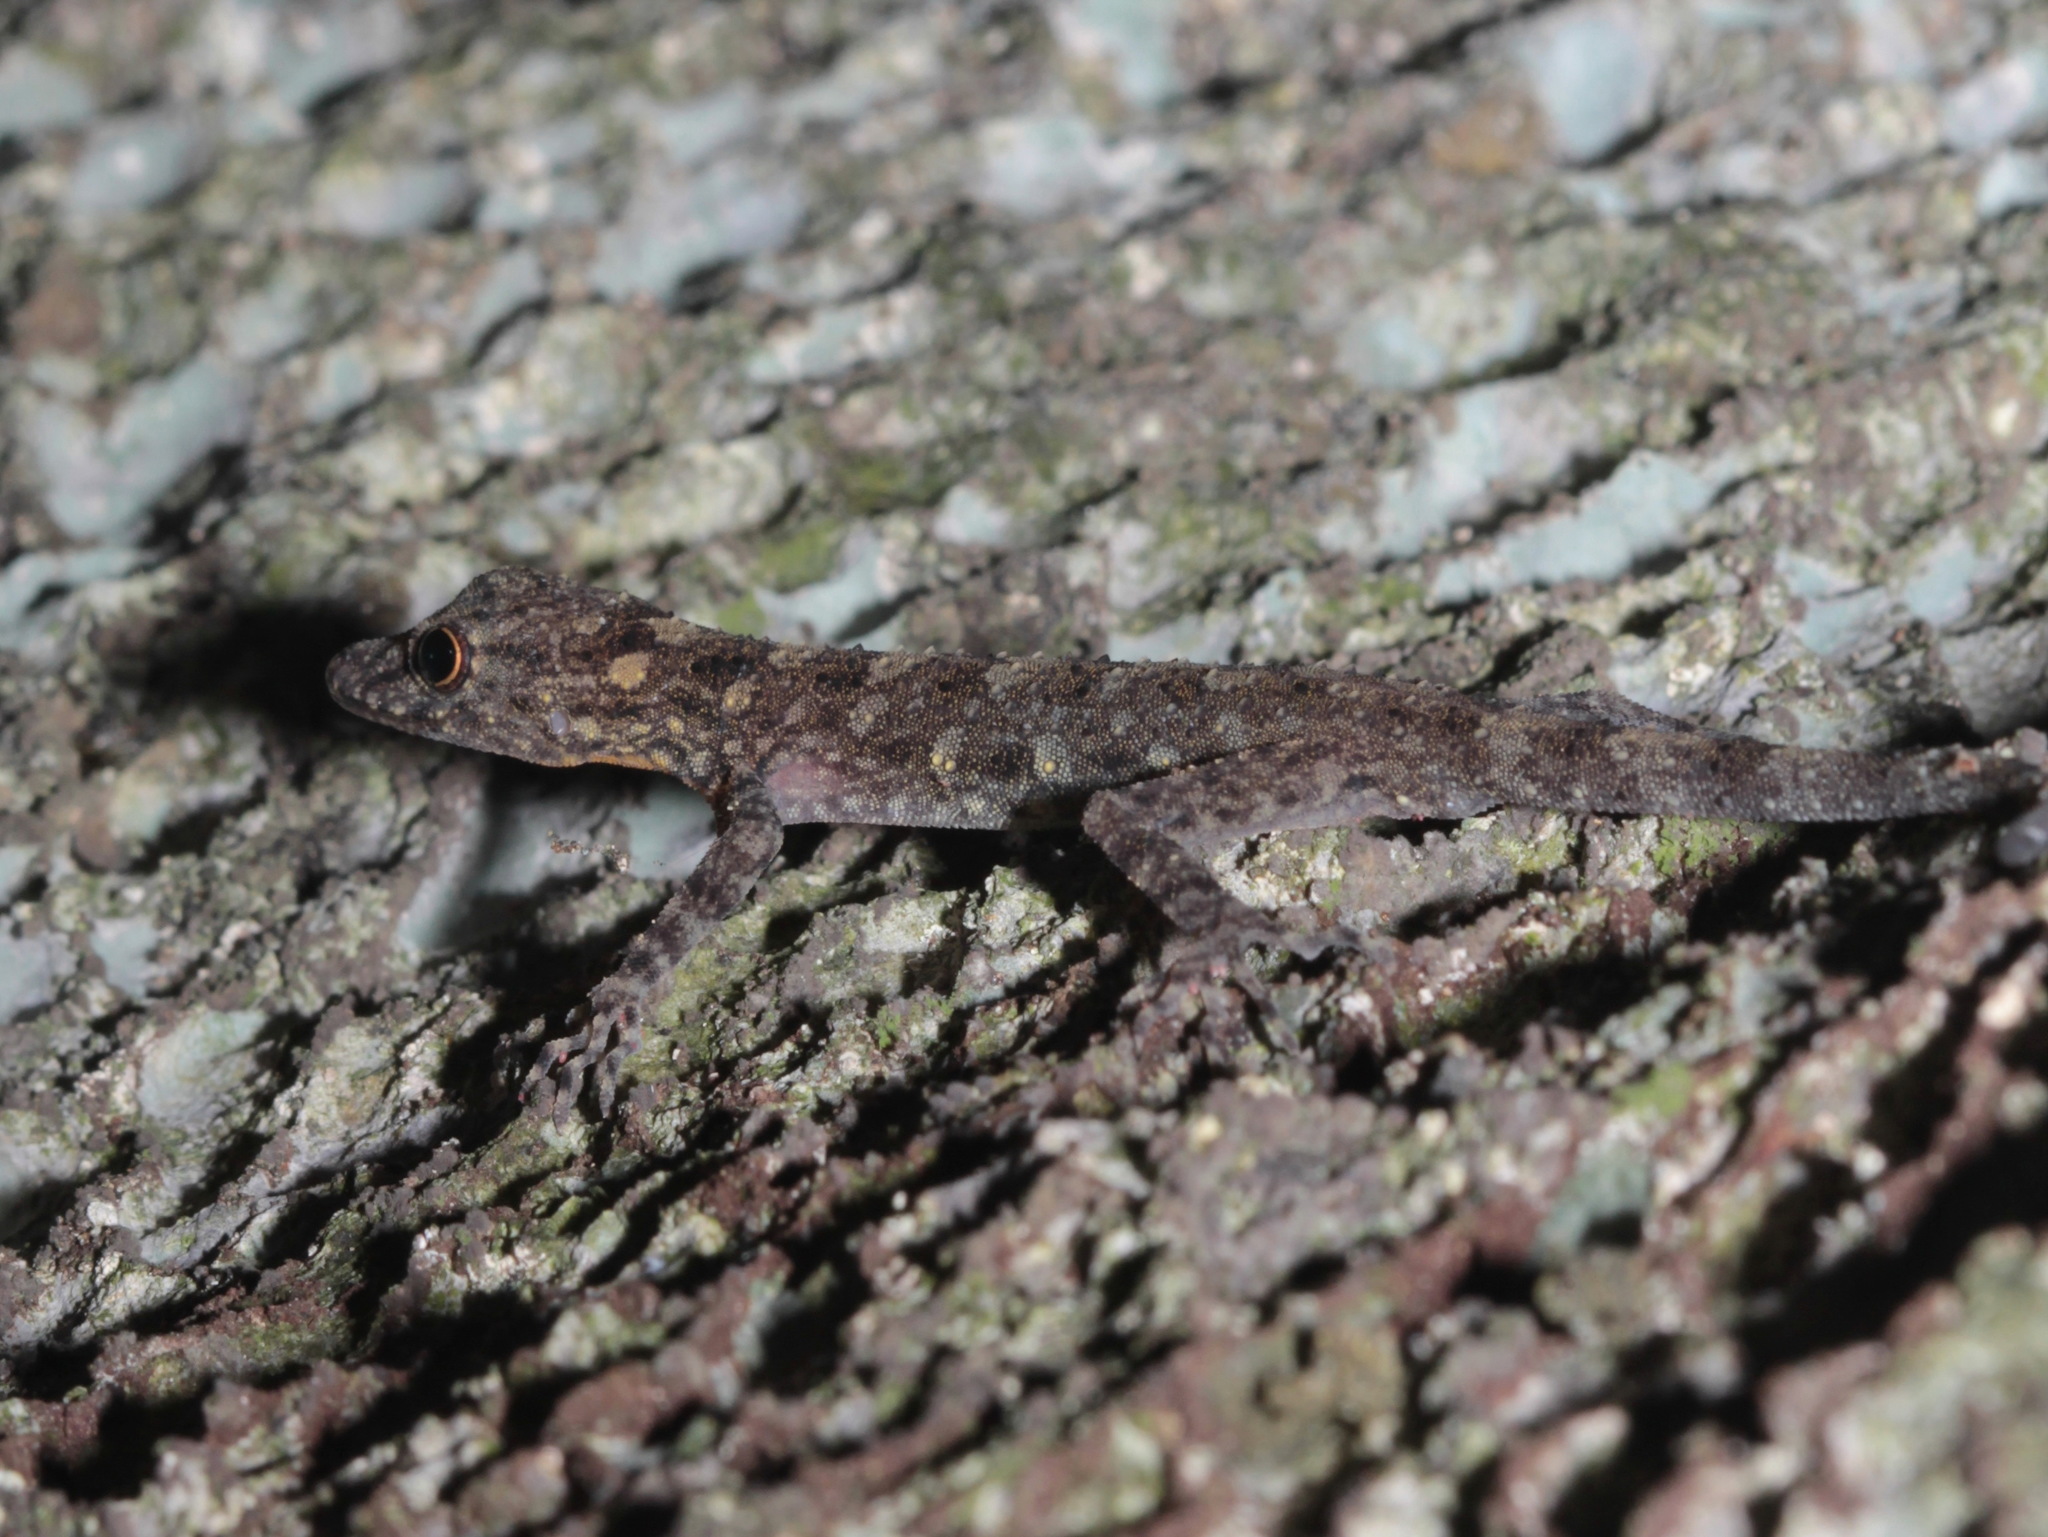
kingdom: Animalia
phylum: Chordata
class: Squamata
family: Gekkonidae
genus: Cnemaspis
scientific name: Cnemaspis thachanaensis
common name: Tha chana rock gecko
